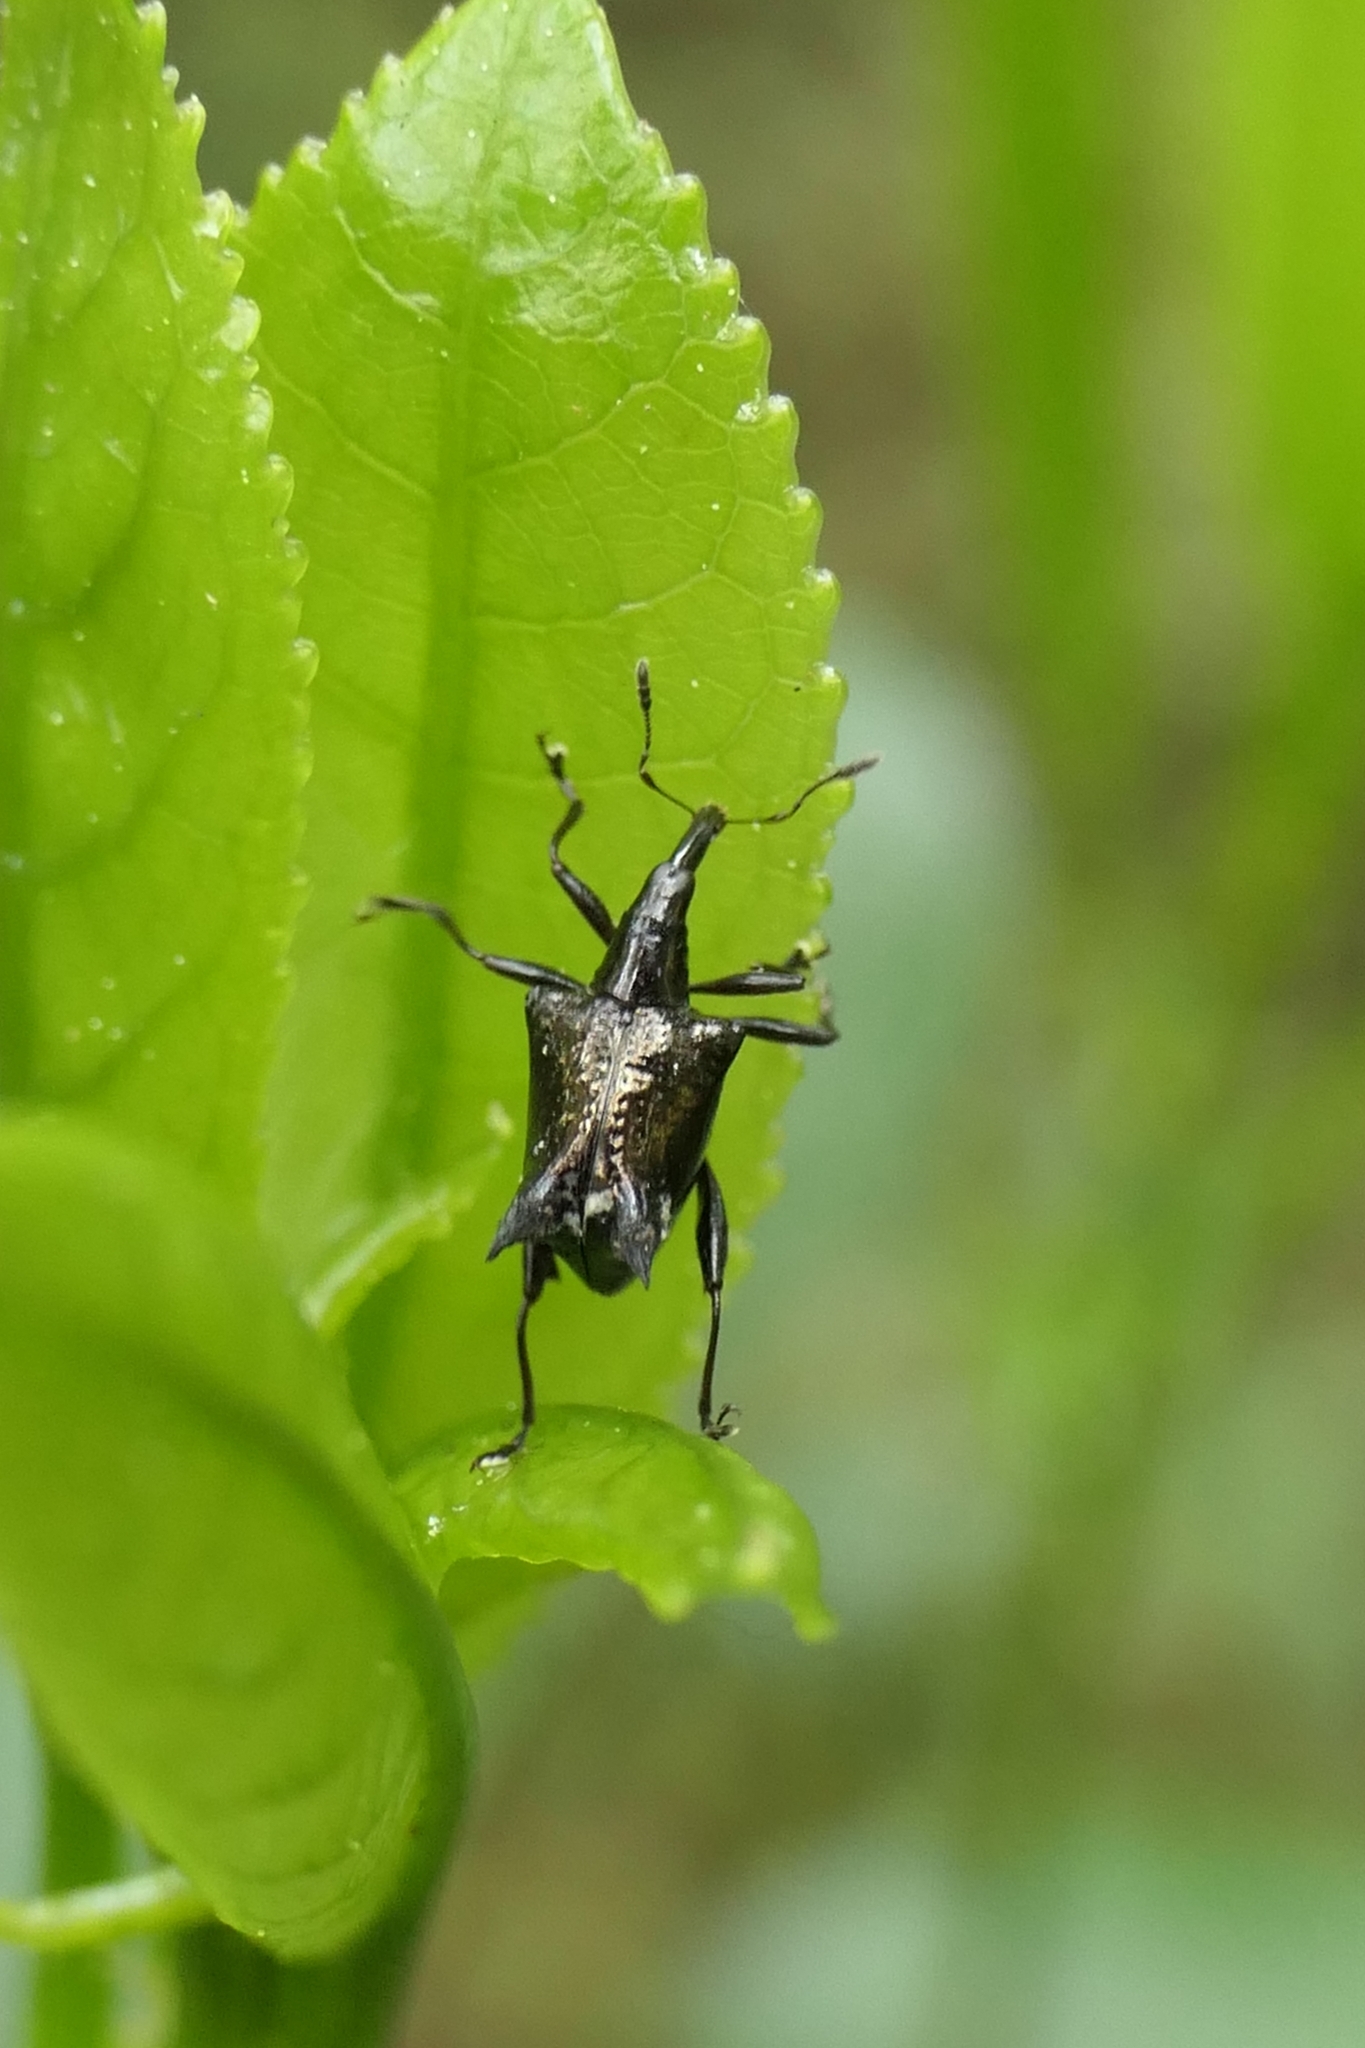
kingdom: Animalia
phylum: Arthropoda
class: Insecta
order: Coleoptera
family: Curculionidae
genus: Scolopterus
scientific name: Scolopterus penicillatus
